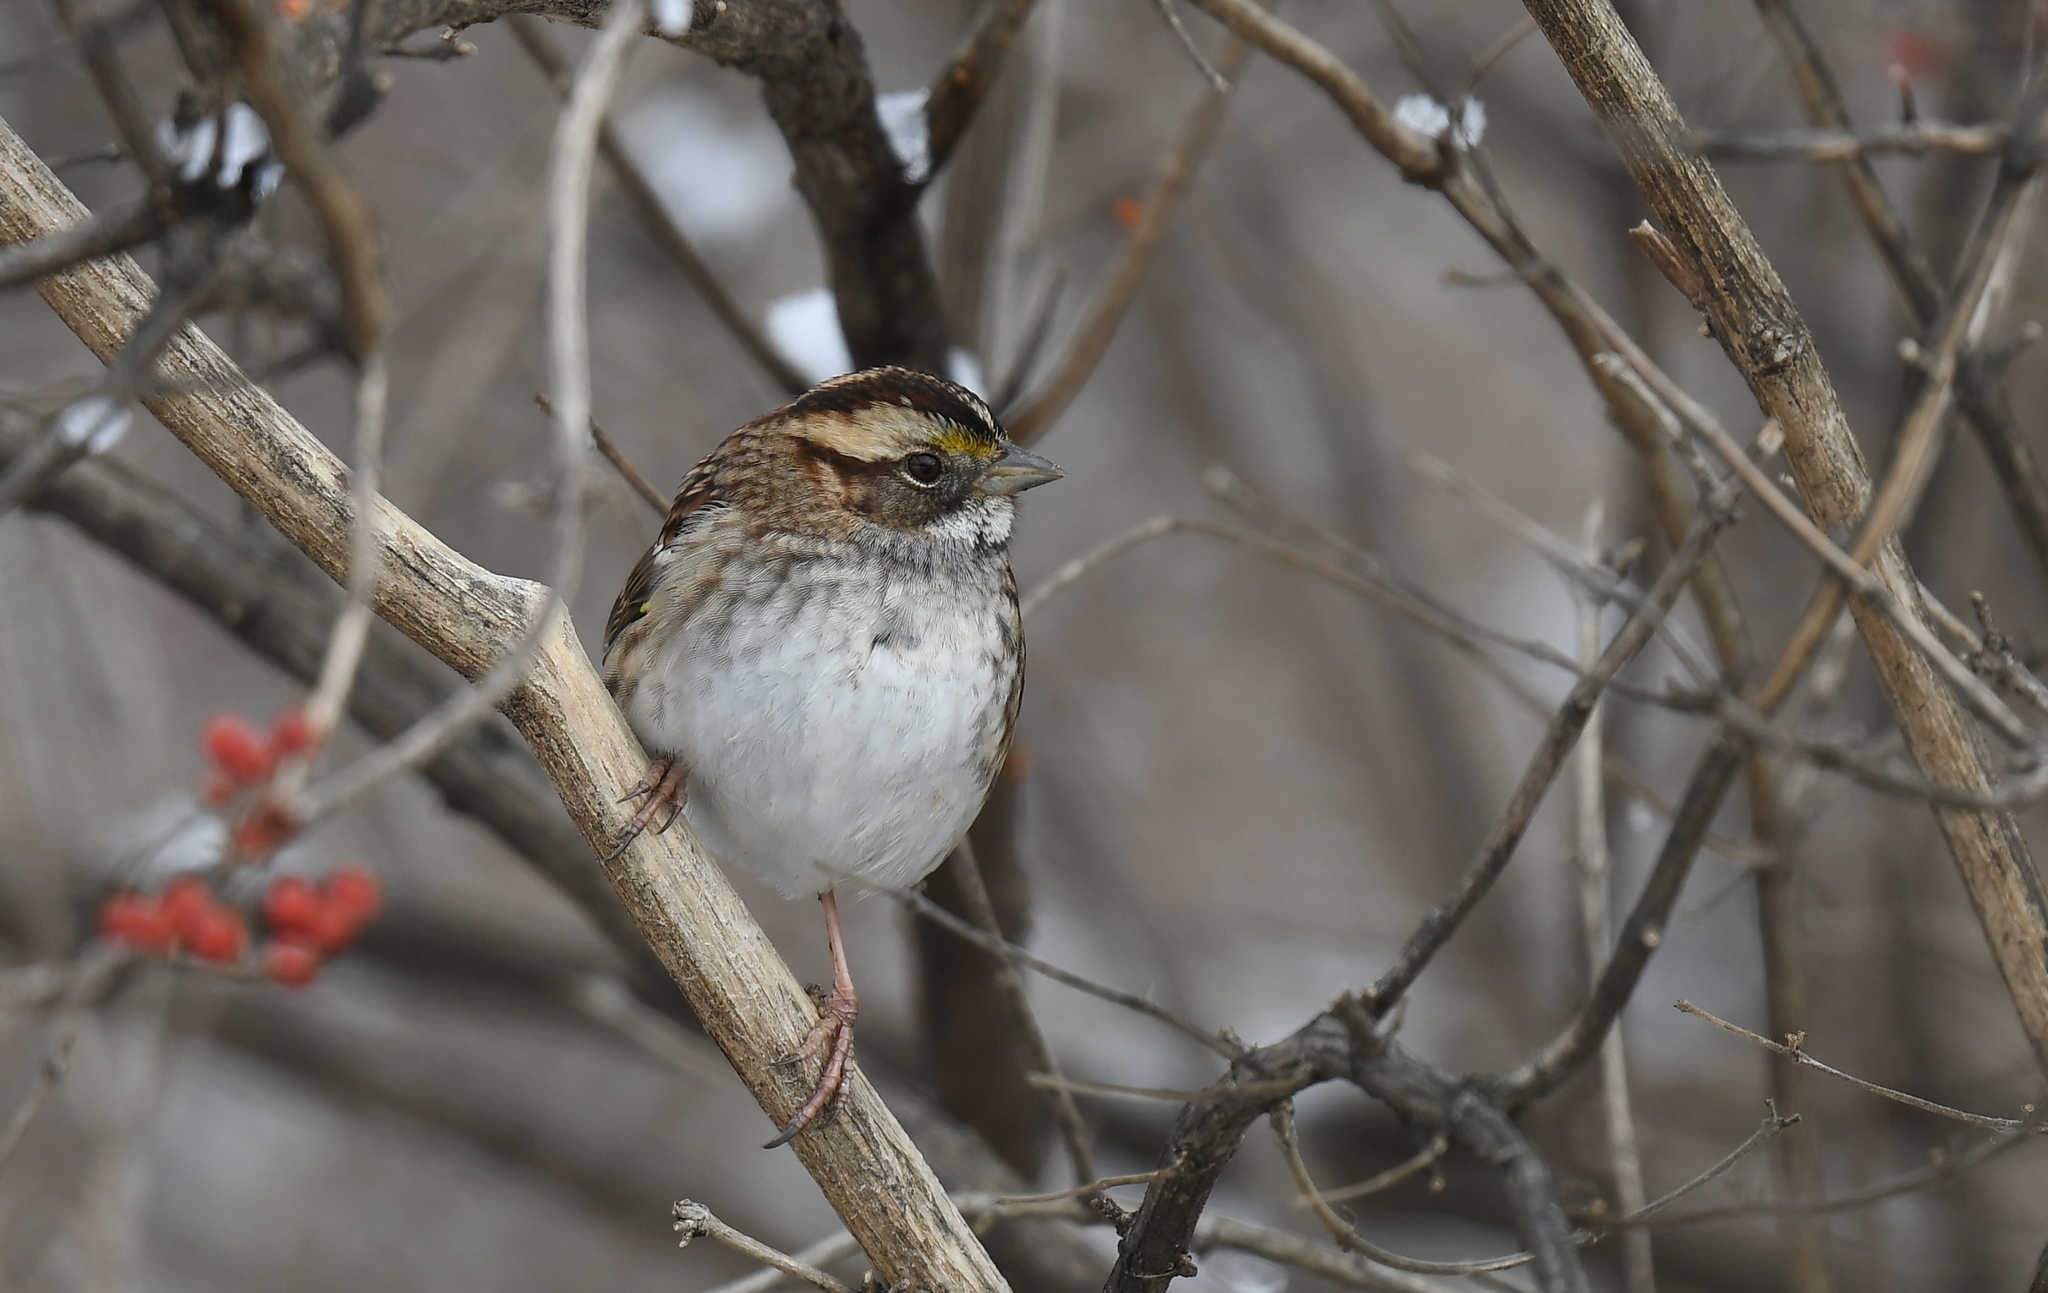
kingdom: Animalia
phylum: Chordata
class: Aves
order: Passeriformes
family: Passerellidae
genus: Zonotrichia
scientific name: Zonotrichia albicollis
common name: White-throated sparrow
